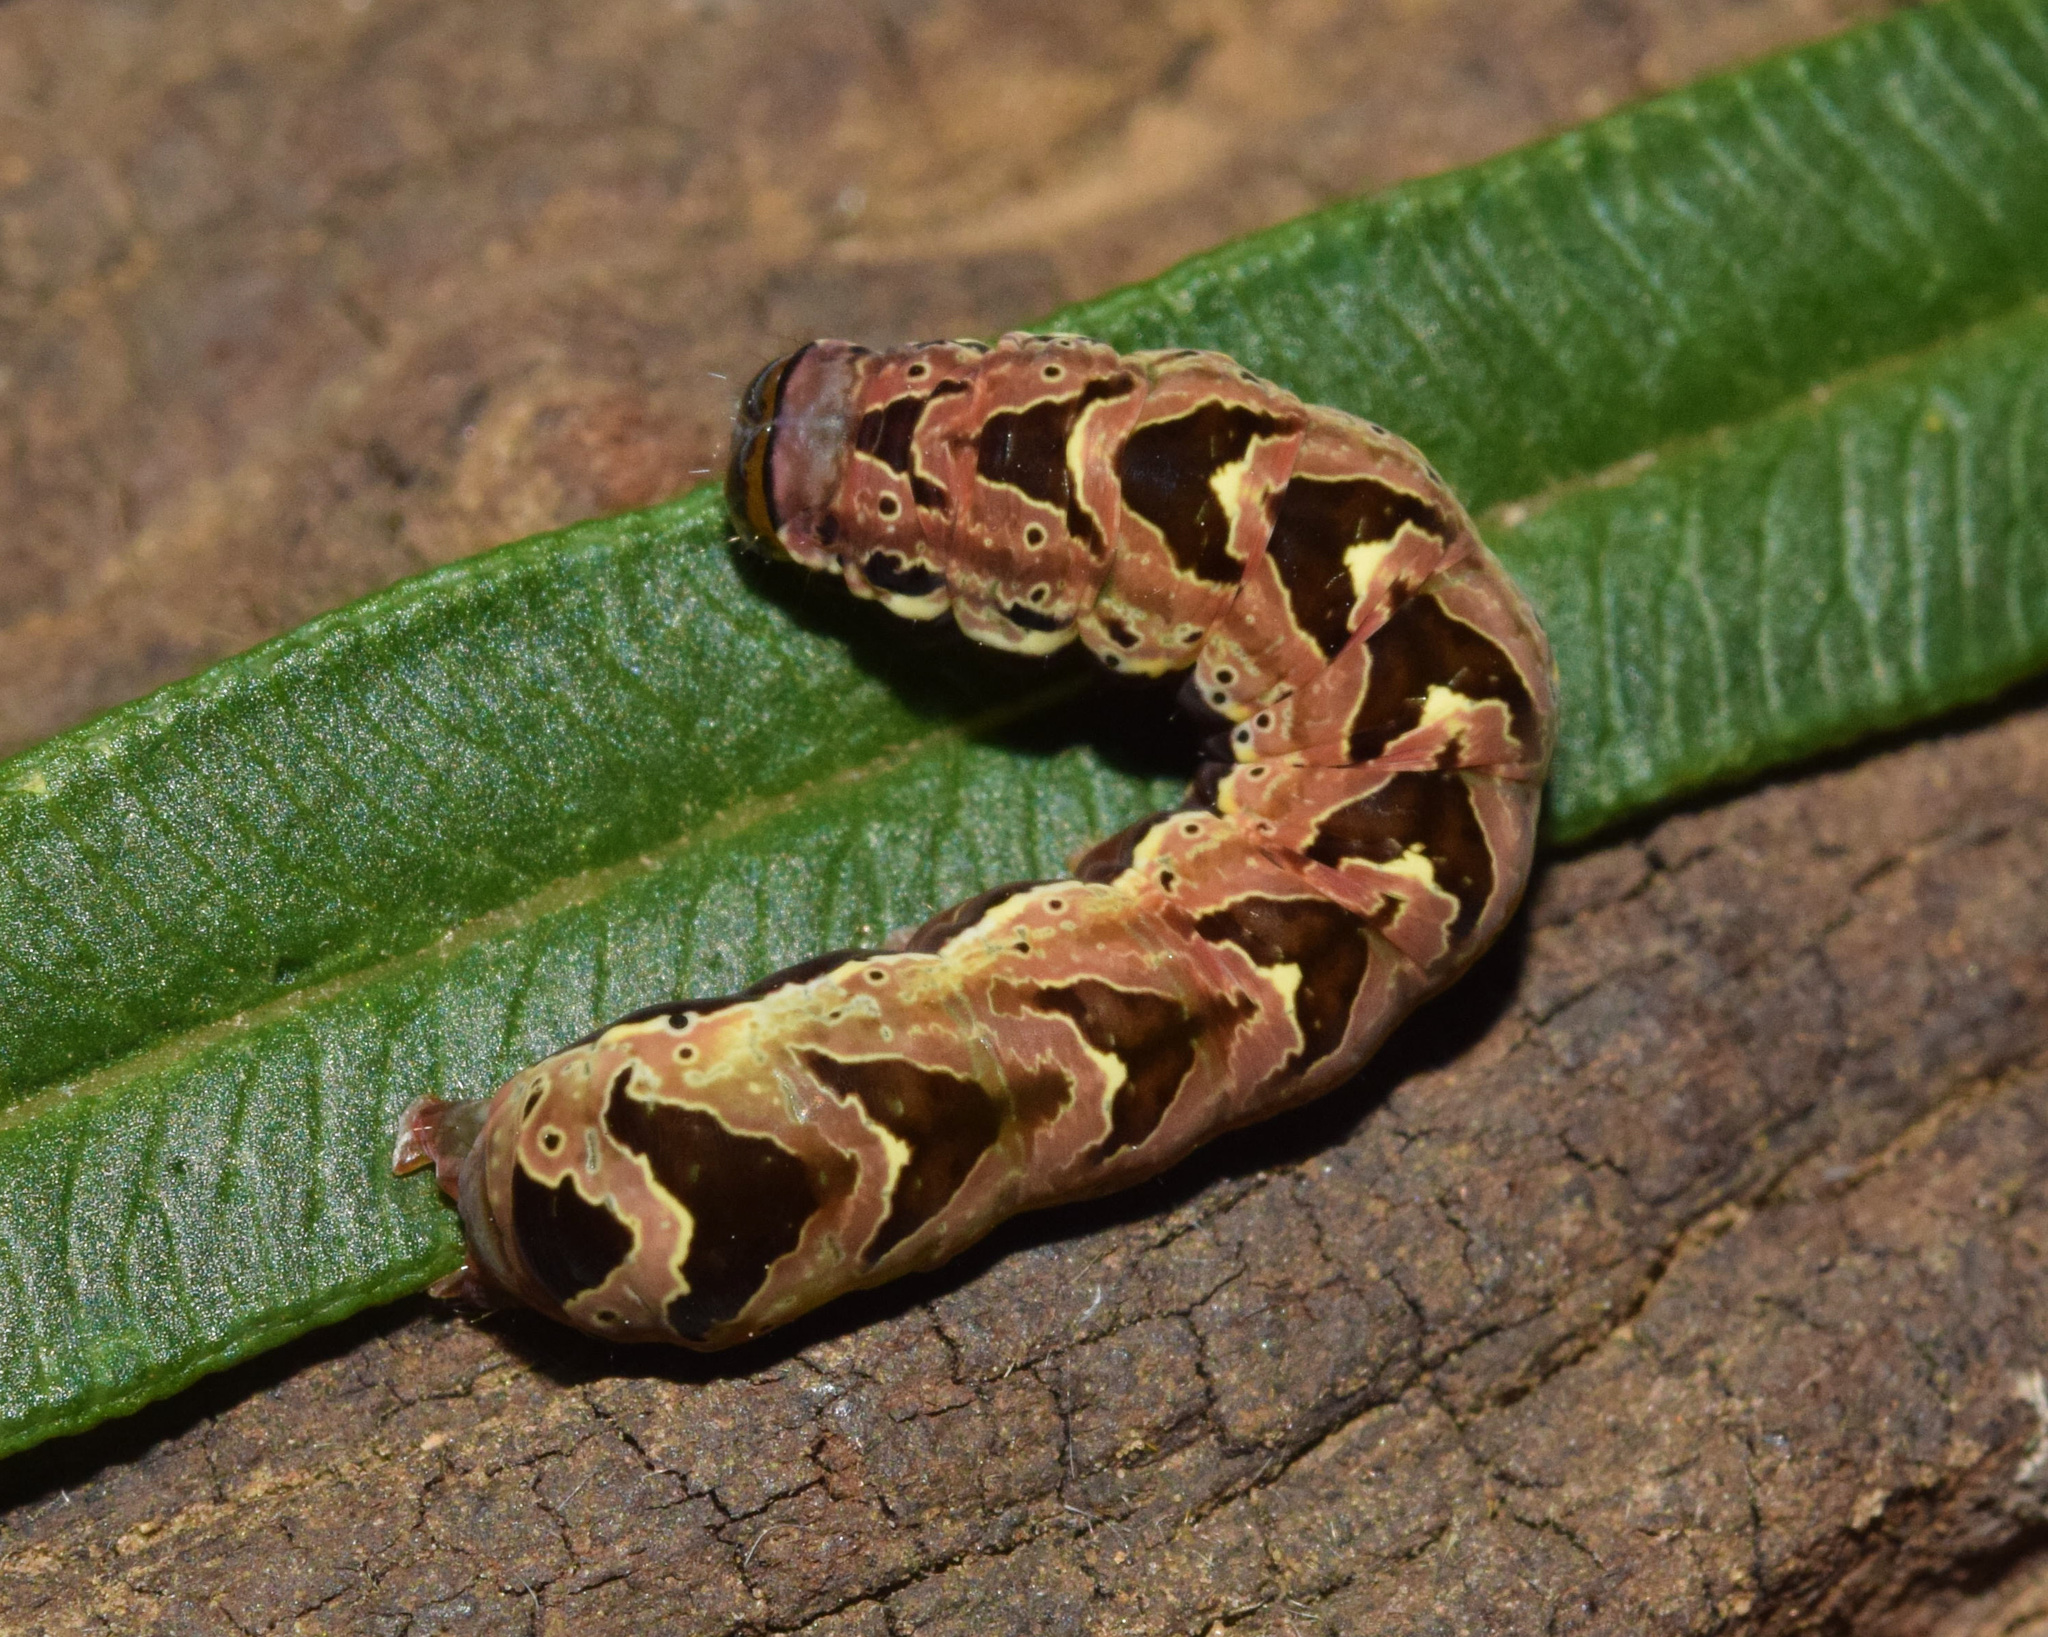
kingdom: Animalia
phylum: Arthropoda
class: Insecta
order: Lepidoptera
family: Noctuidae
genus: Callopistria
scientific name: Callopistria maillardi
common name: Cutworm
